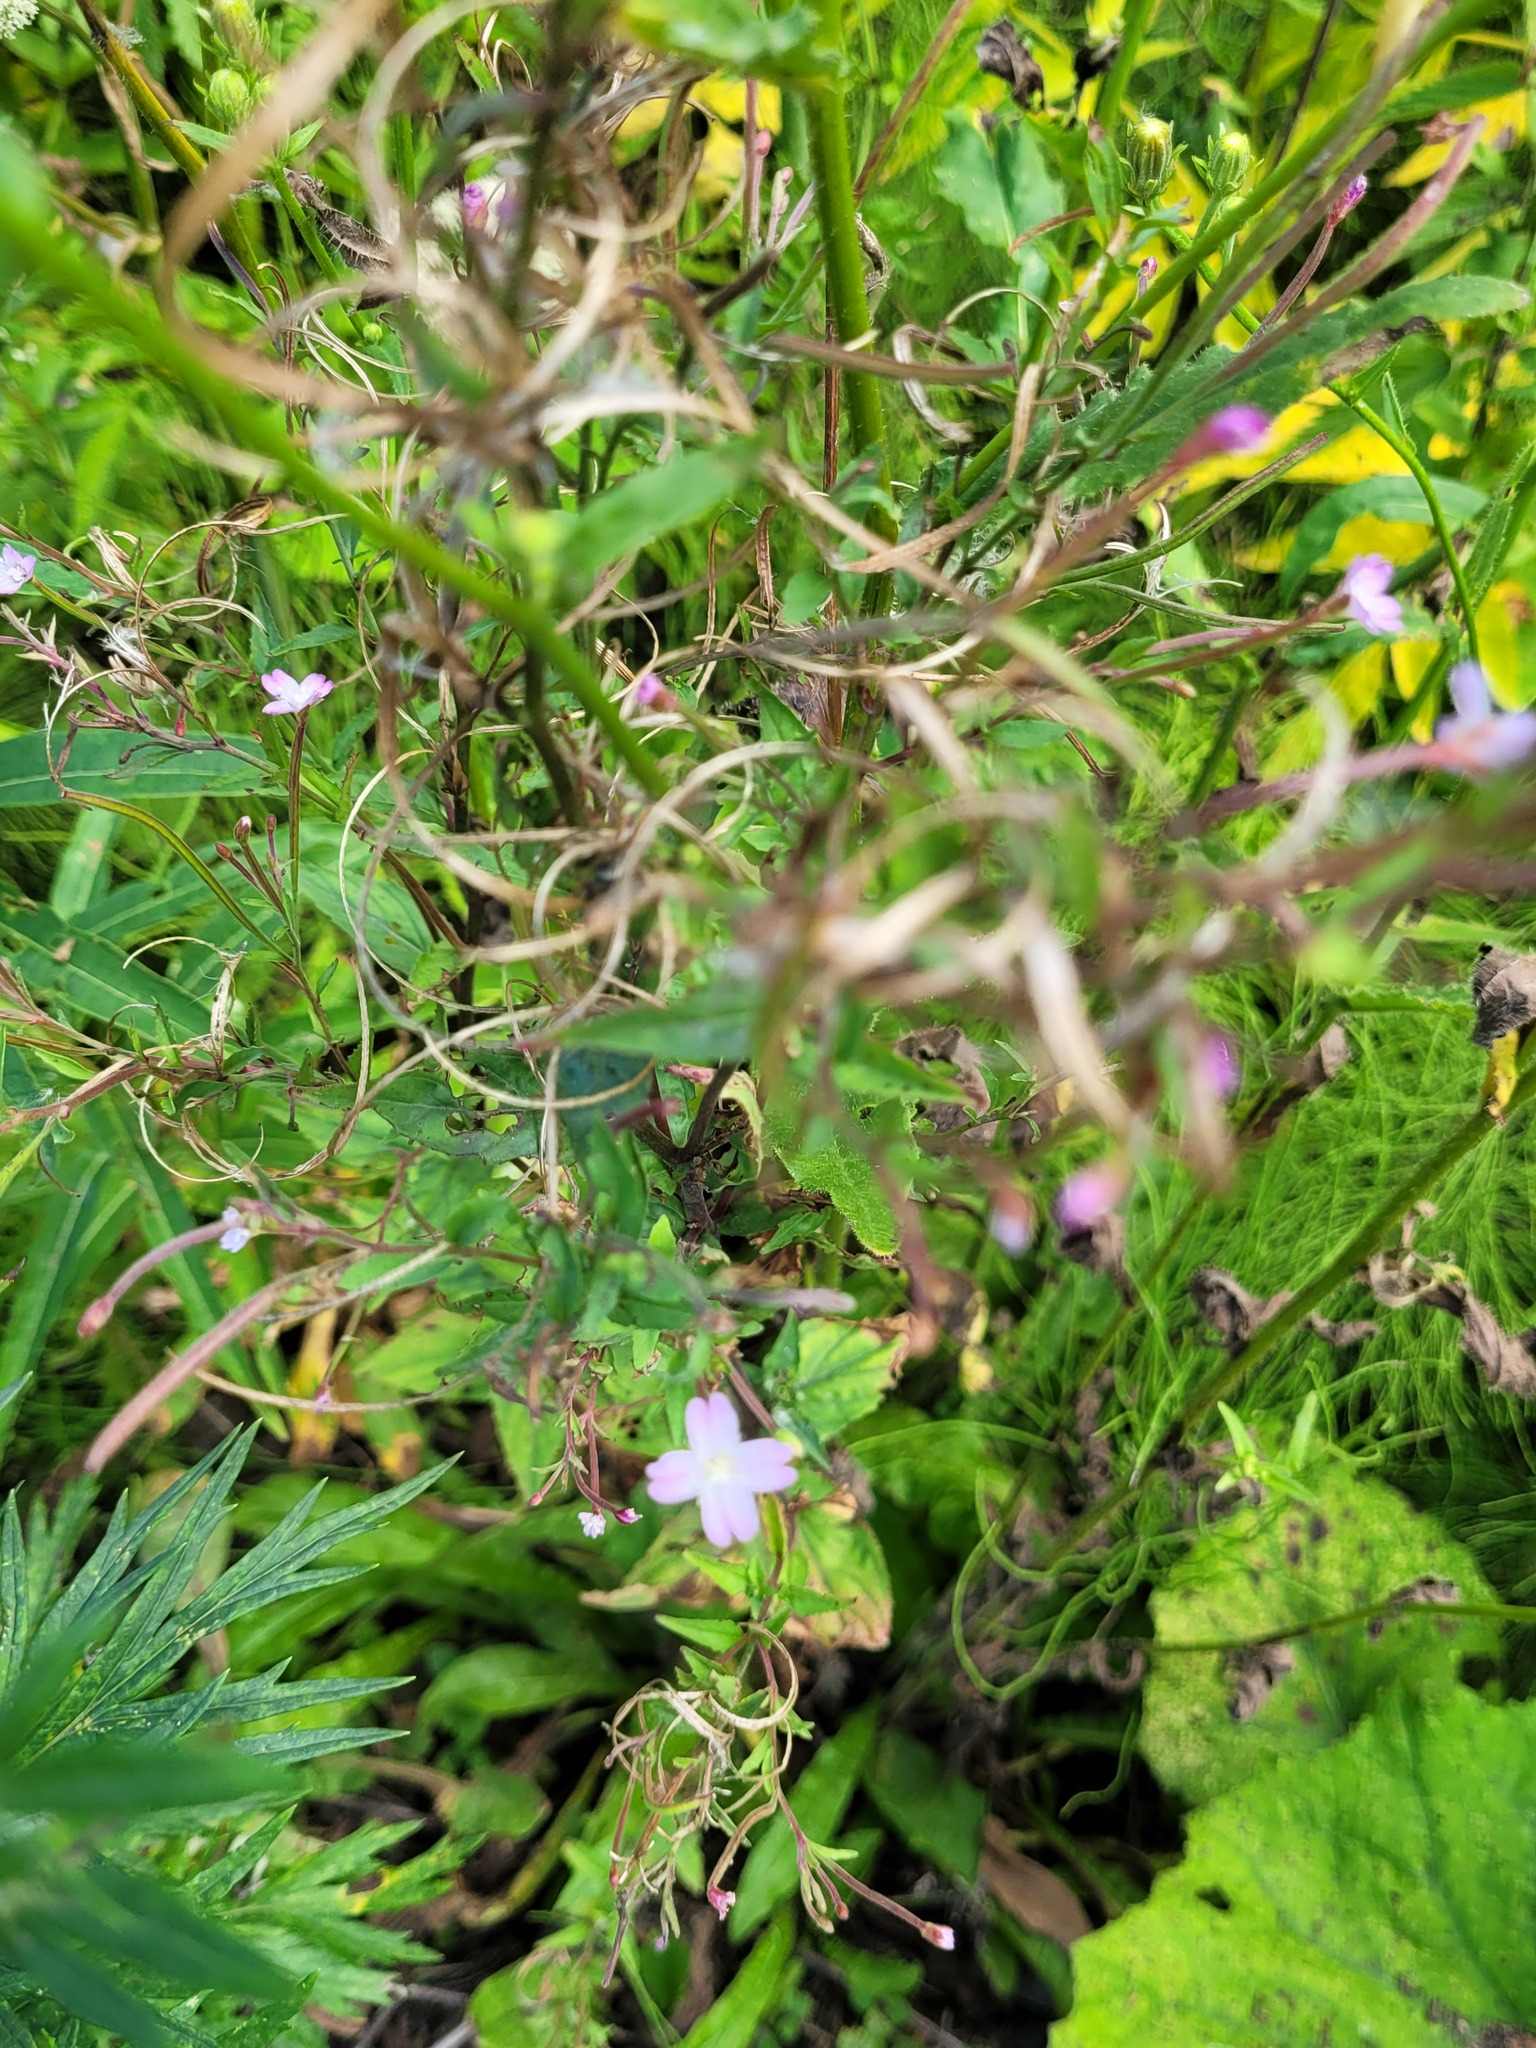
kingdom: Plantae
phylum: Tracheophyta
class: Magnoliopsida
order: Myrtales
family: Onagraceae
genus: Epilobium
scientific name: Epilobium montanum
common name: Broad-leaved willowherb
